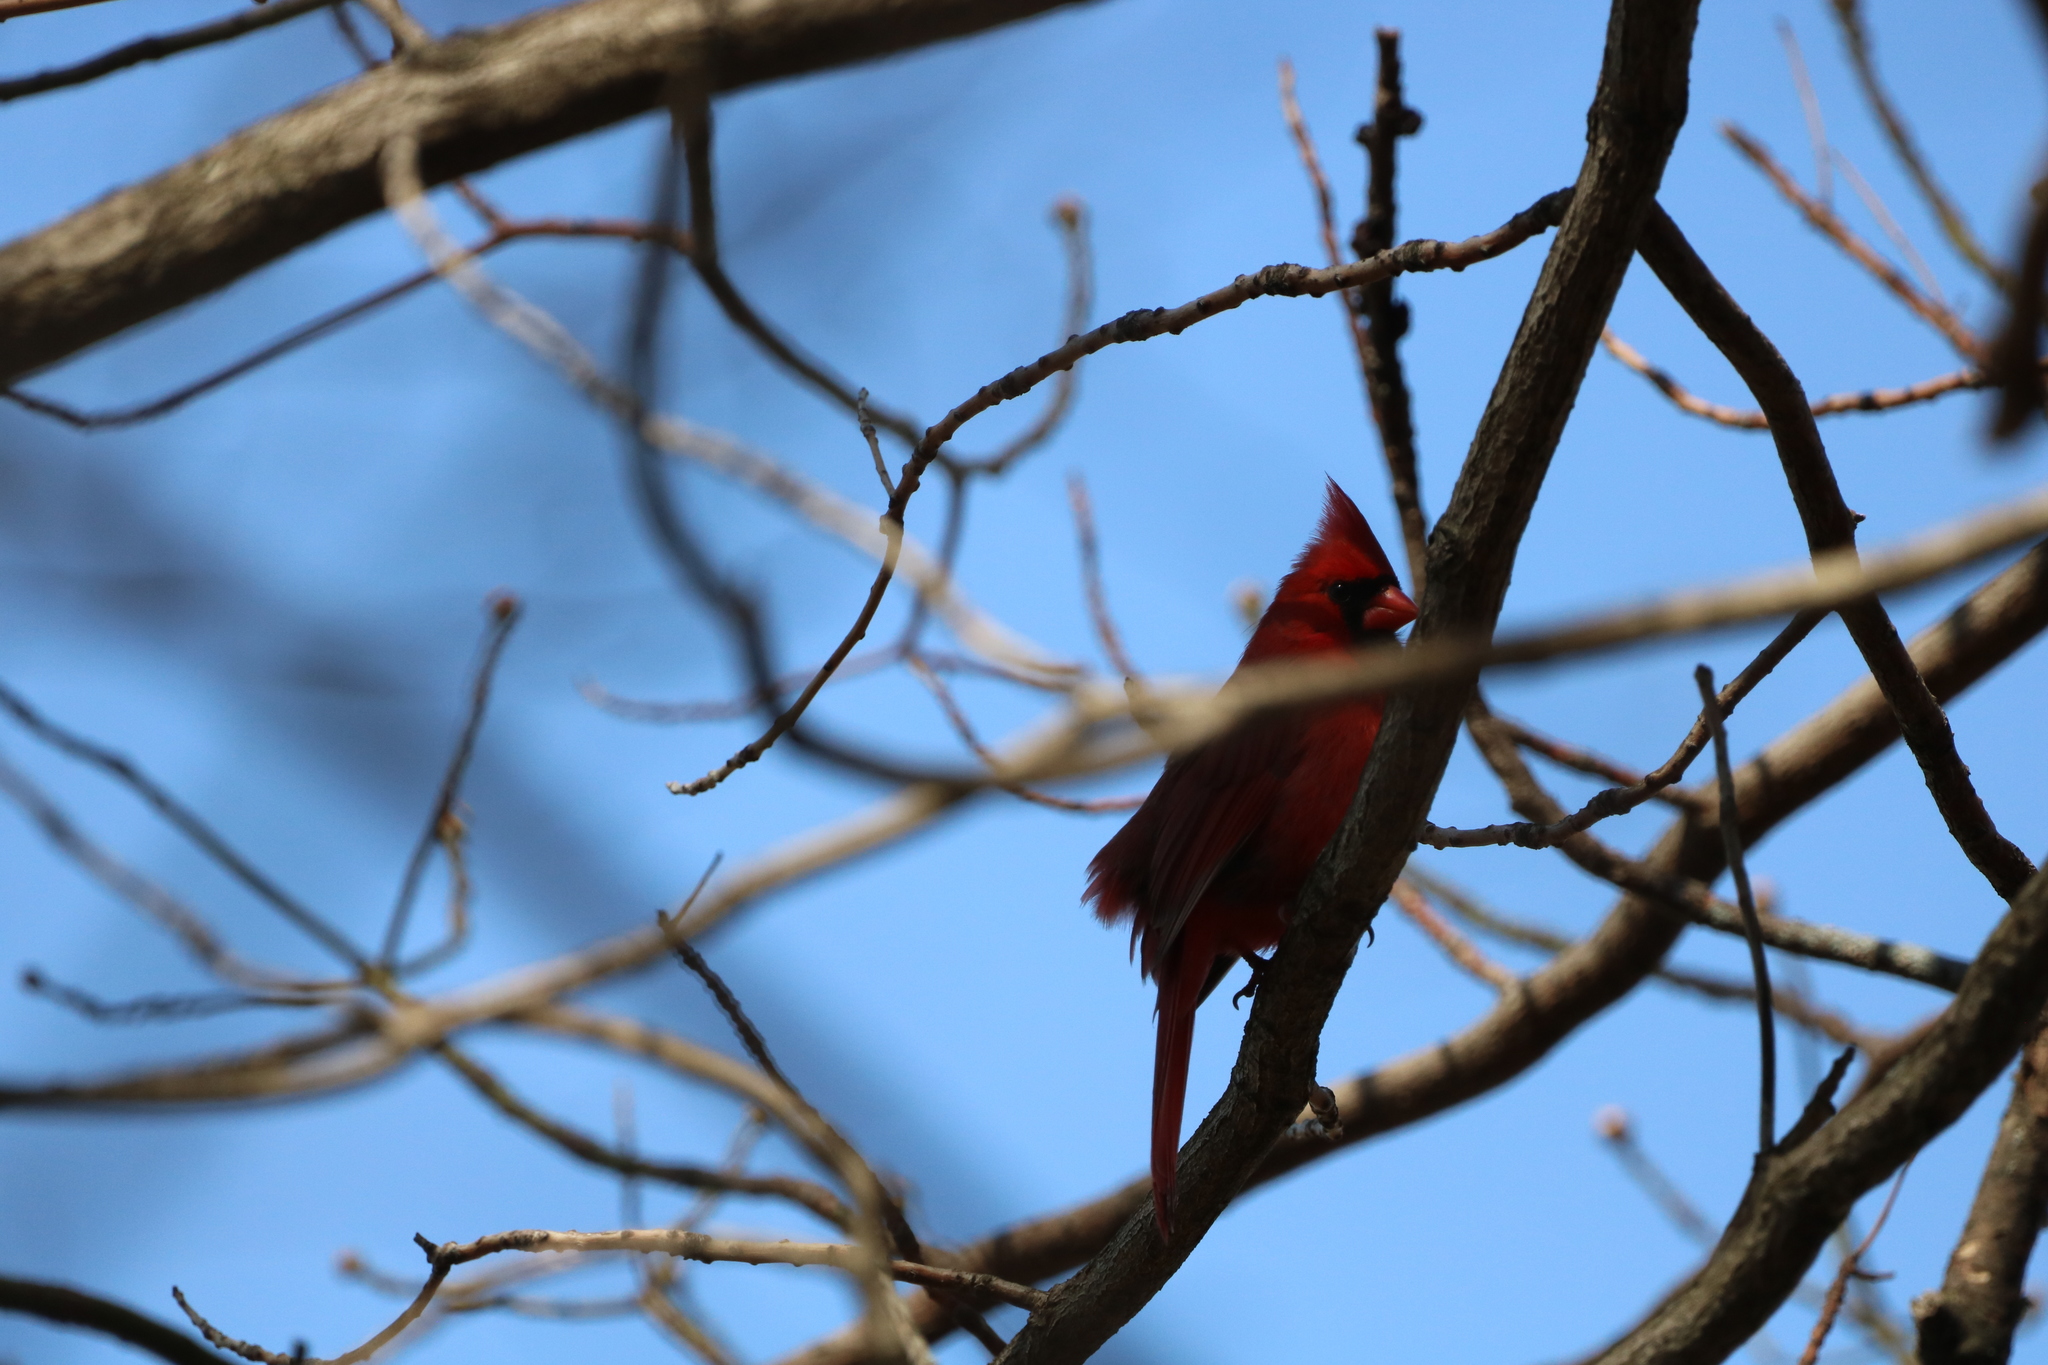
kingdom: Animalia
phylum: Chordata
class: Aves
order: Passeriformes
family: Cardinalidae
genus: Cardinalis
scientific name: Cardinalis cardinalis
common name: Northern cardinal
